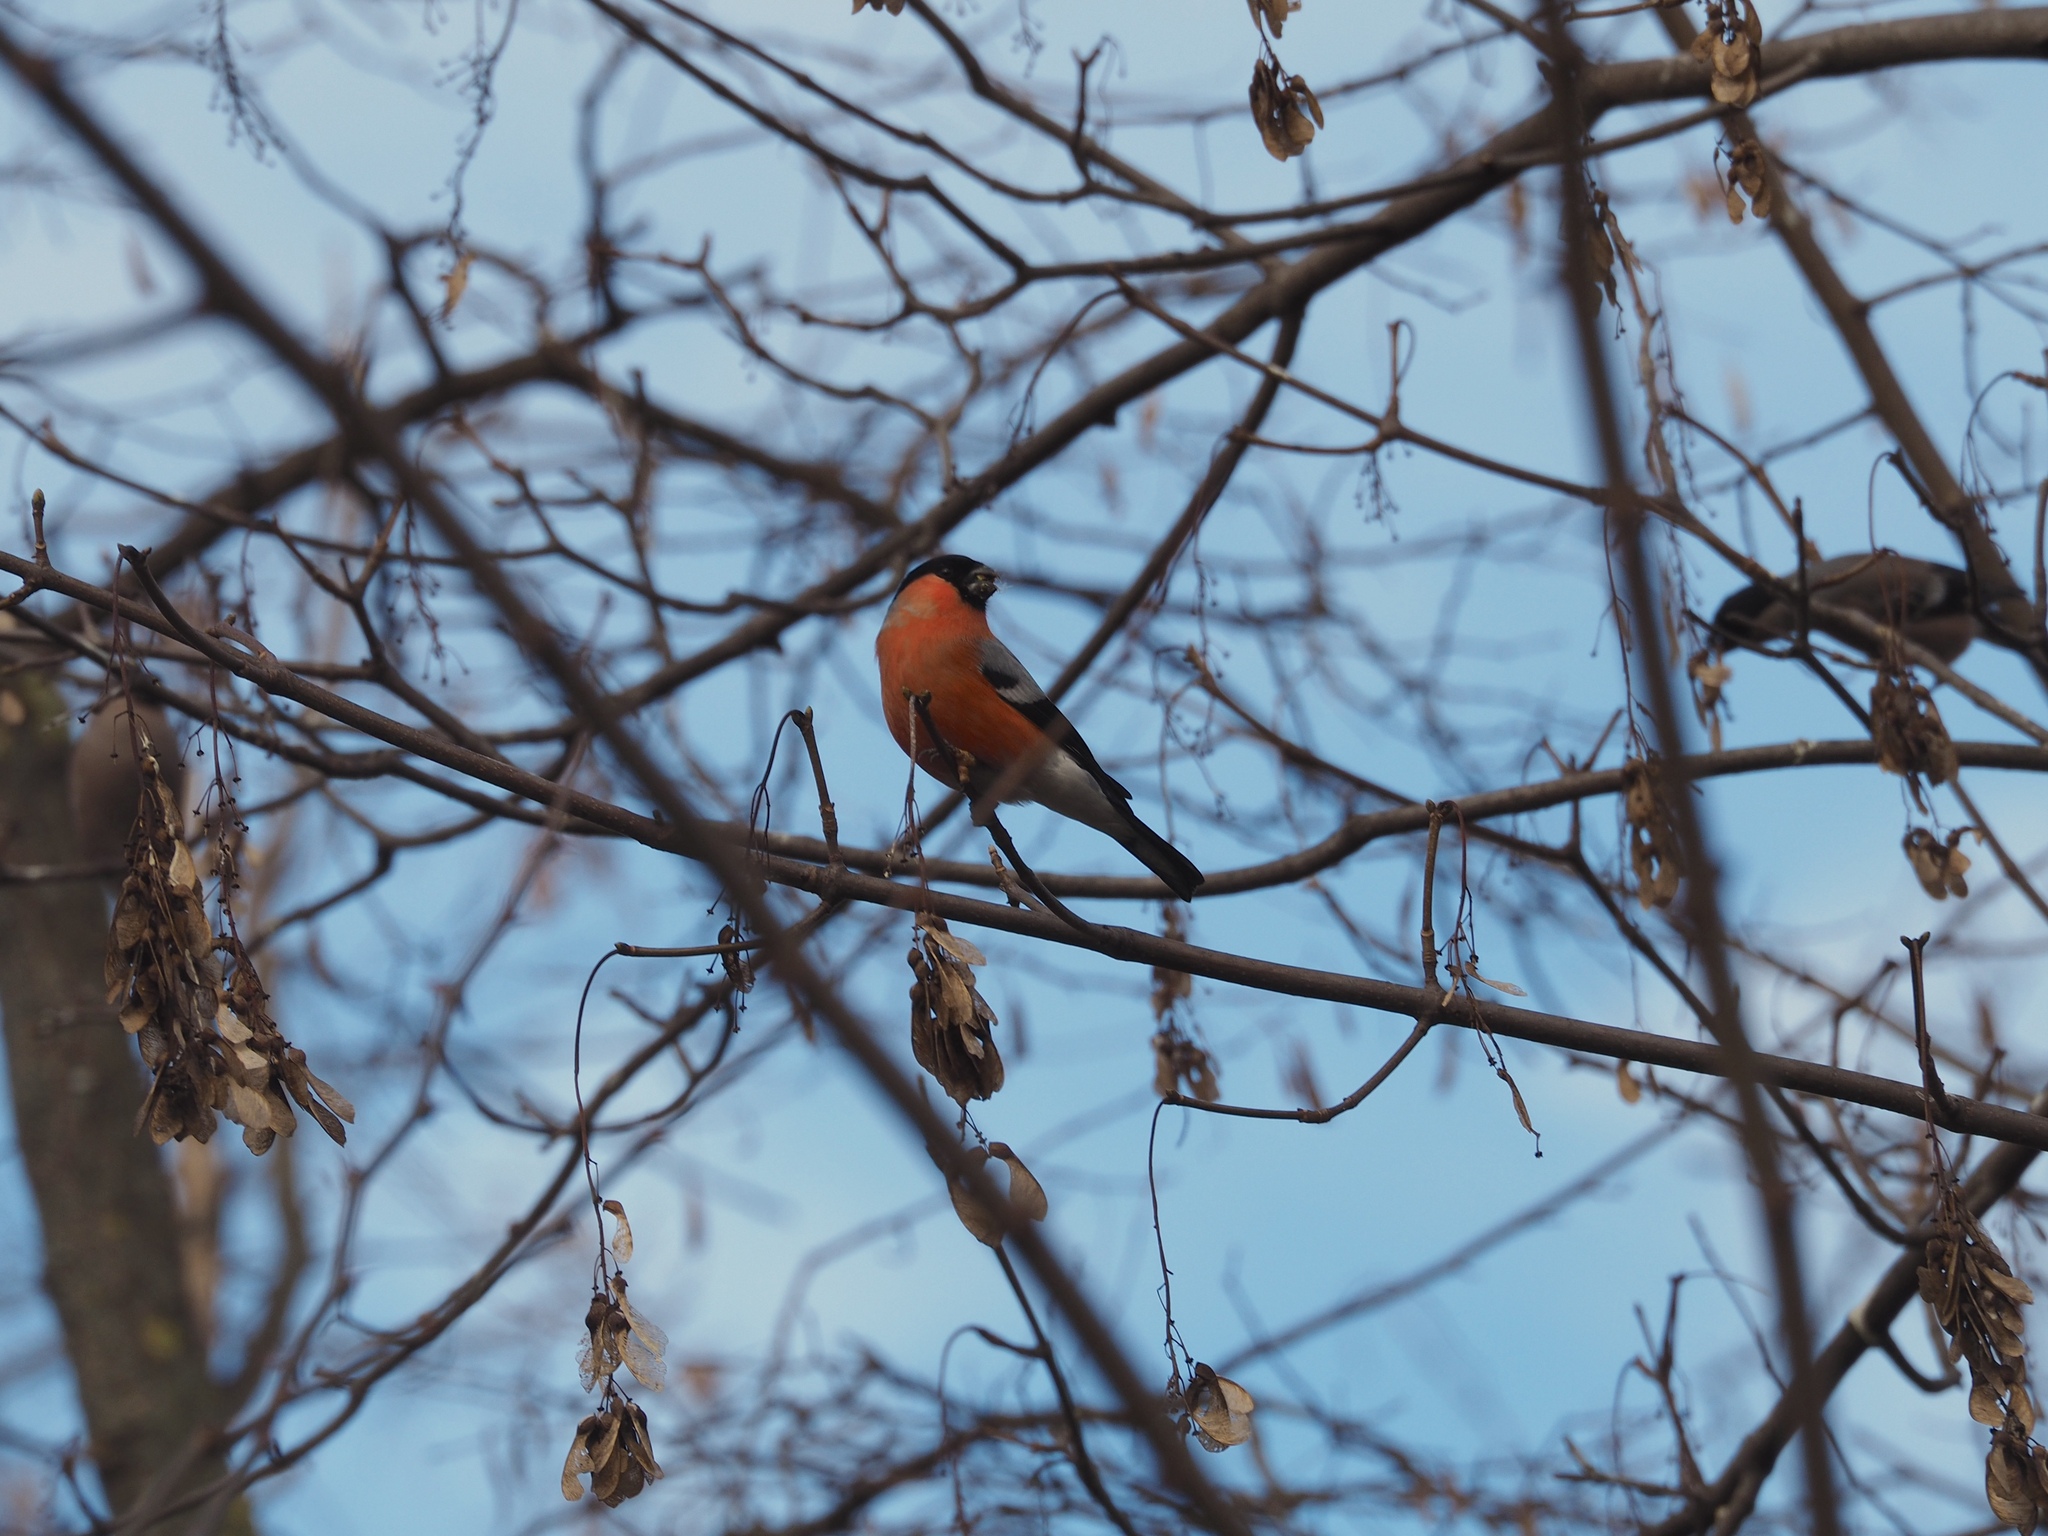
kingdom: Animalia
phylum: Chordata
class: Aves
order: Passeriformes
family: Fringillidae
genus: Pyrrhula
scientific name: Pyrrhula pyrrhula
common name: Eurasian bullfinch
